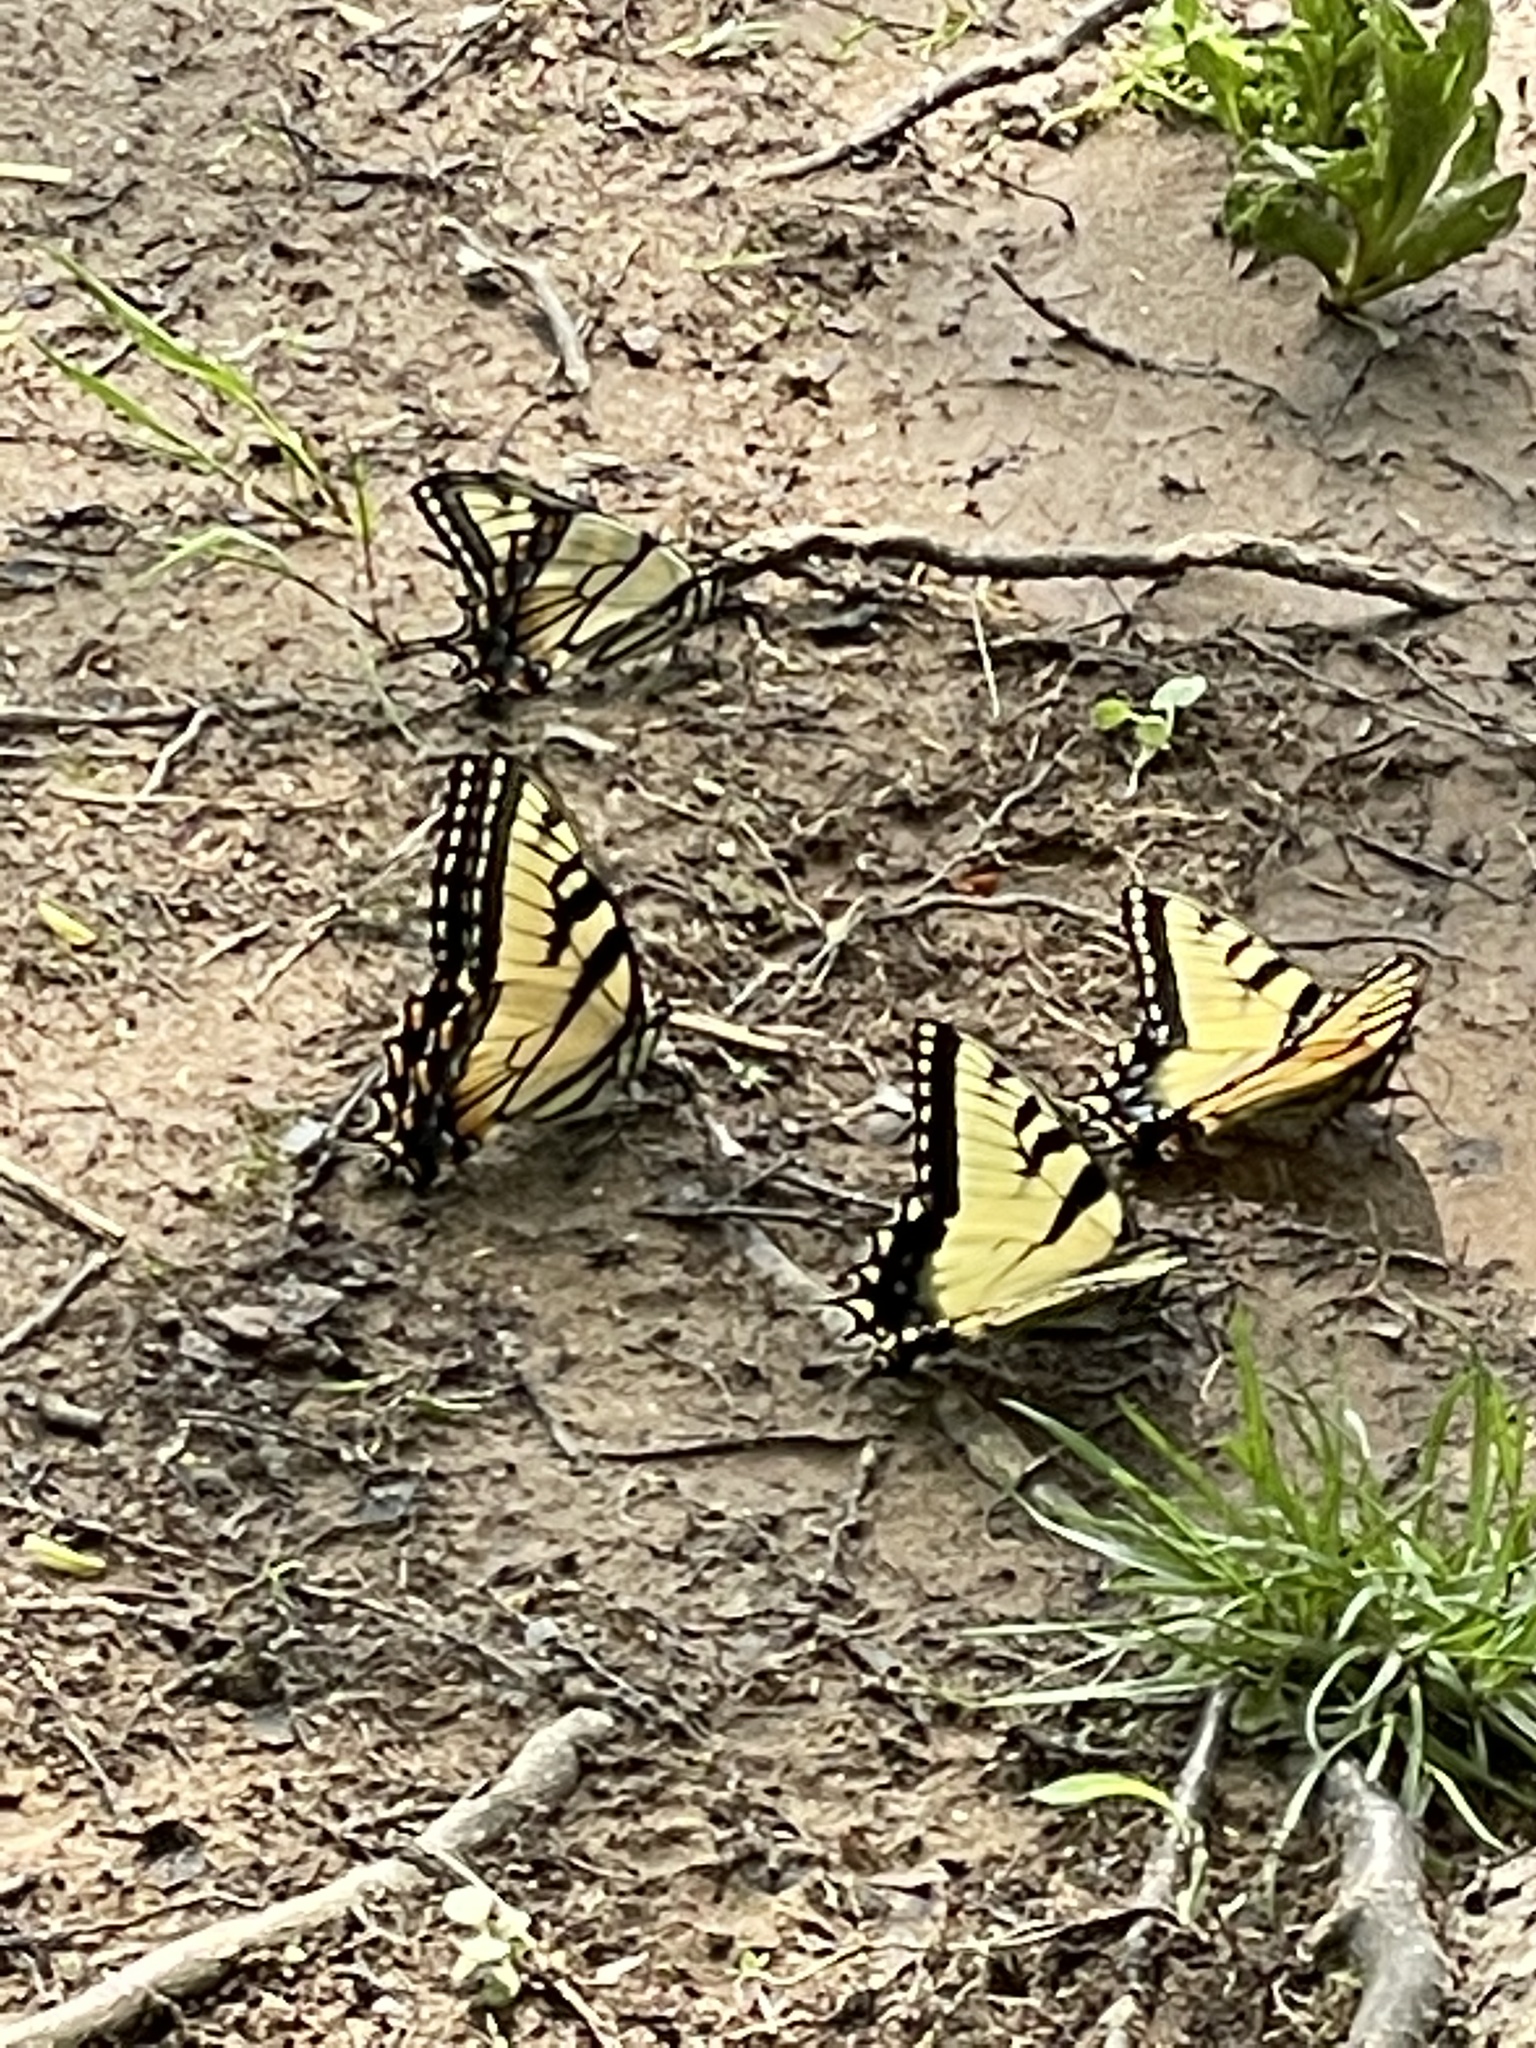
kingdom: Animalia
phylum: Arthropoda
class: Insecta
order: Lepidoptera
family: Papilionidae
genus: Papilio
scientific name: Papilio glaucus
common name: Tiger swallowtail
